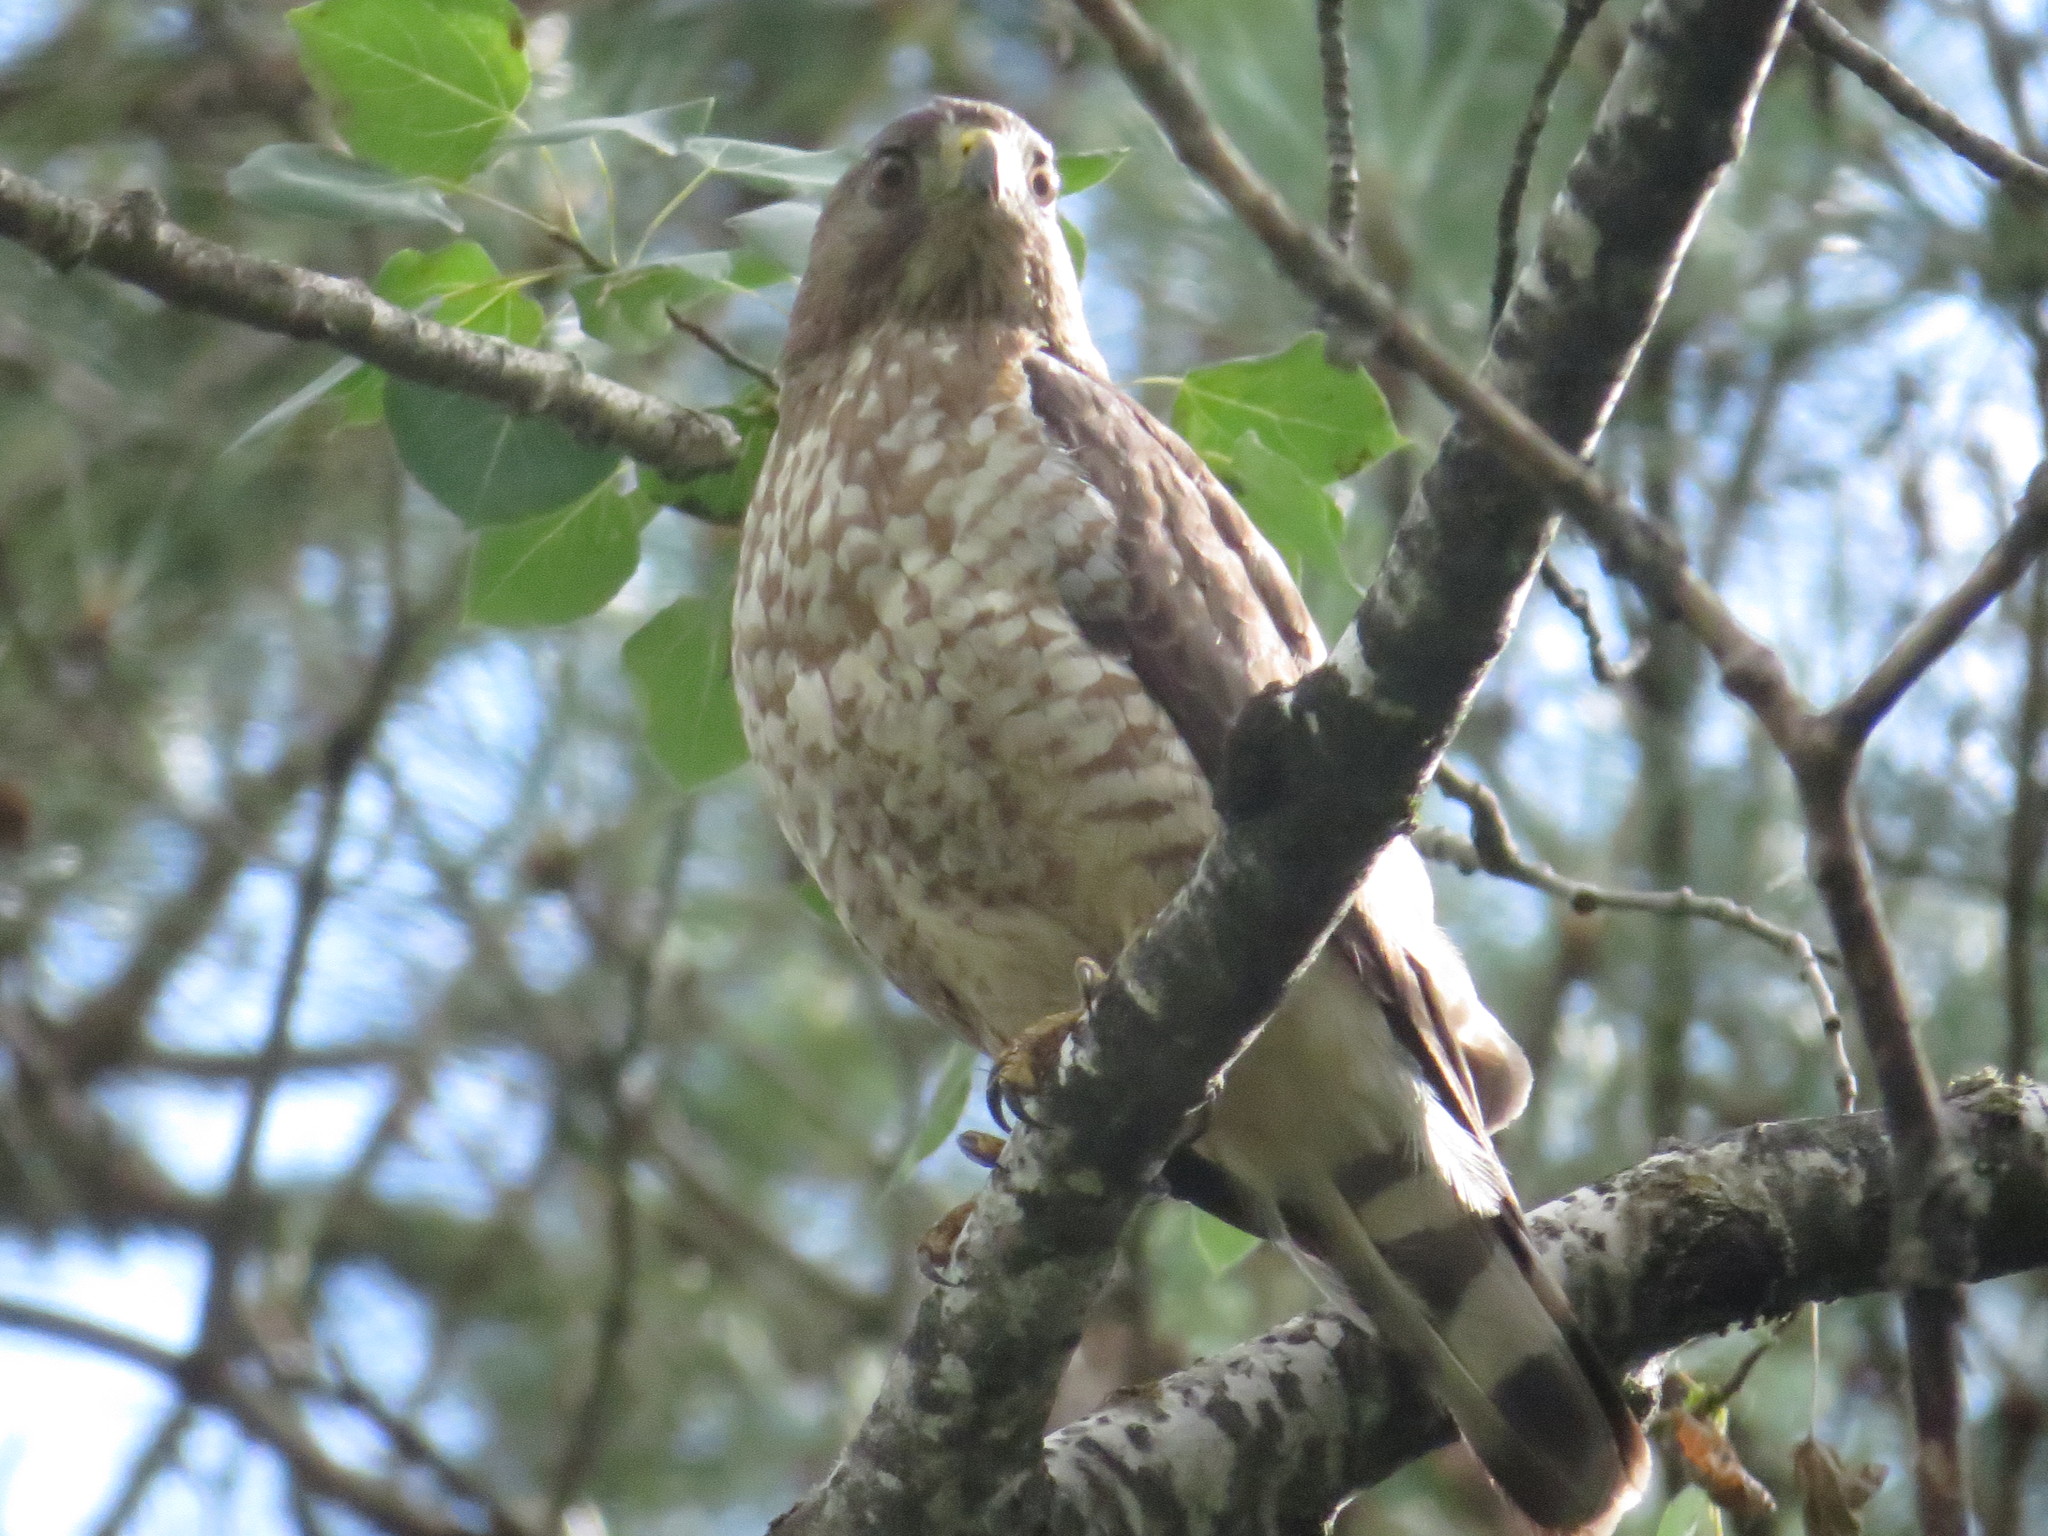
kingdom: Animalia
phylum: Chordata
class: Aves
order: Accipitriformes
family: Accipitridae
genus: Buteo
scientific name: Buteo platypterus
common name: Broad-winged hawk
